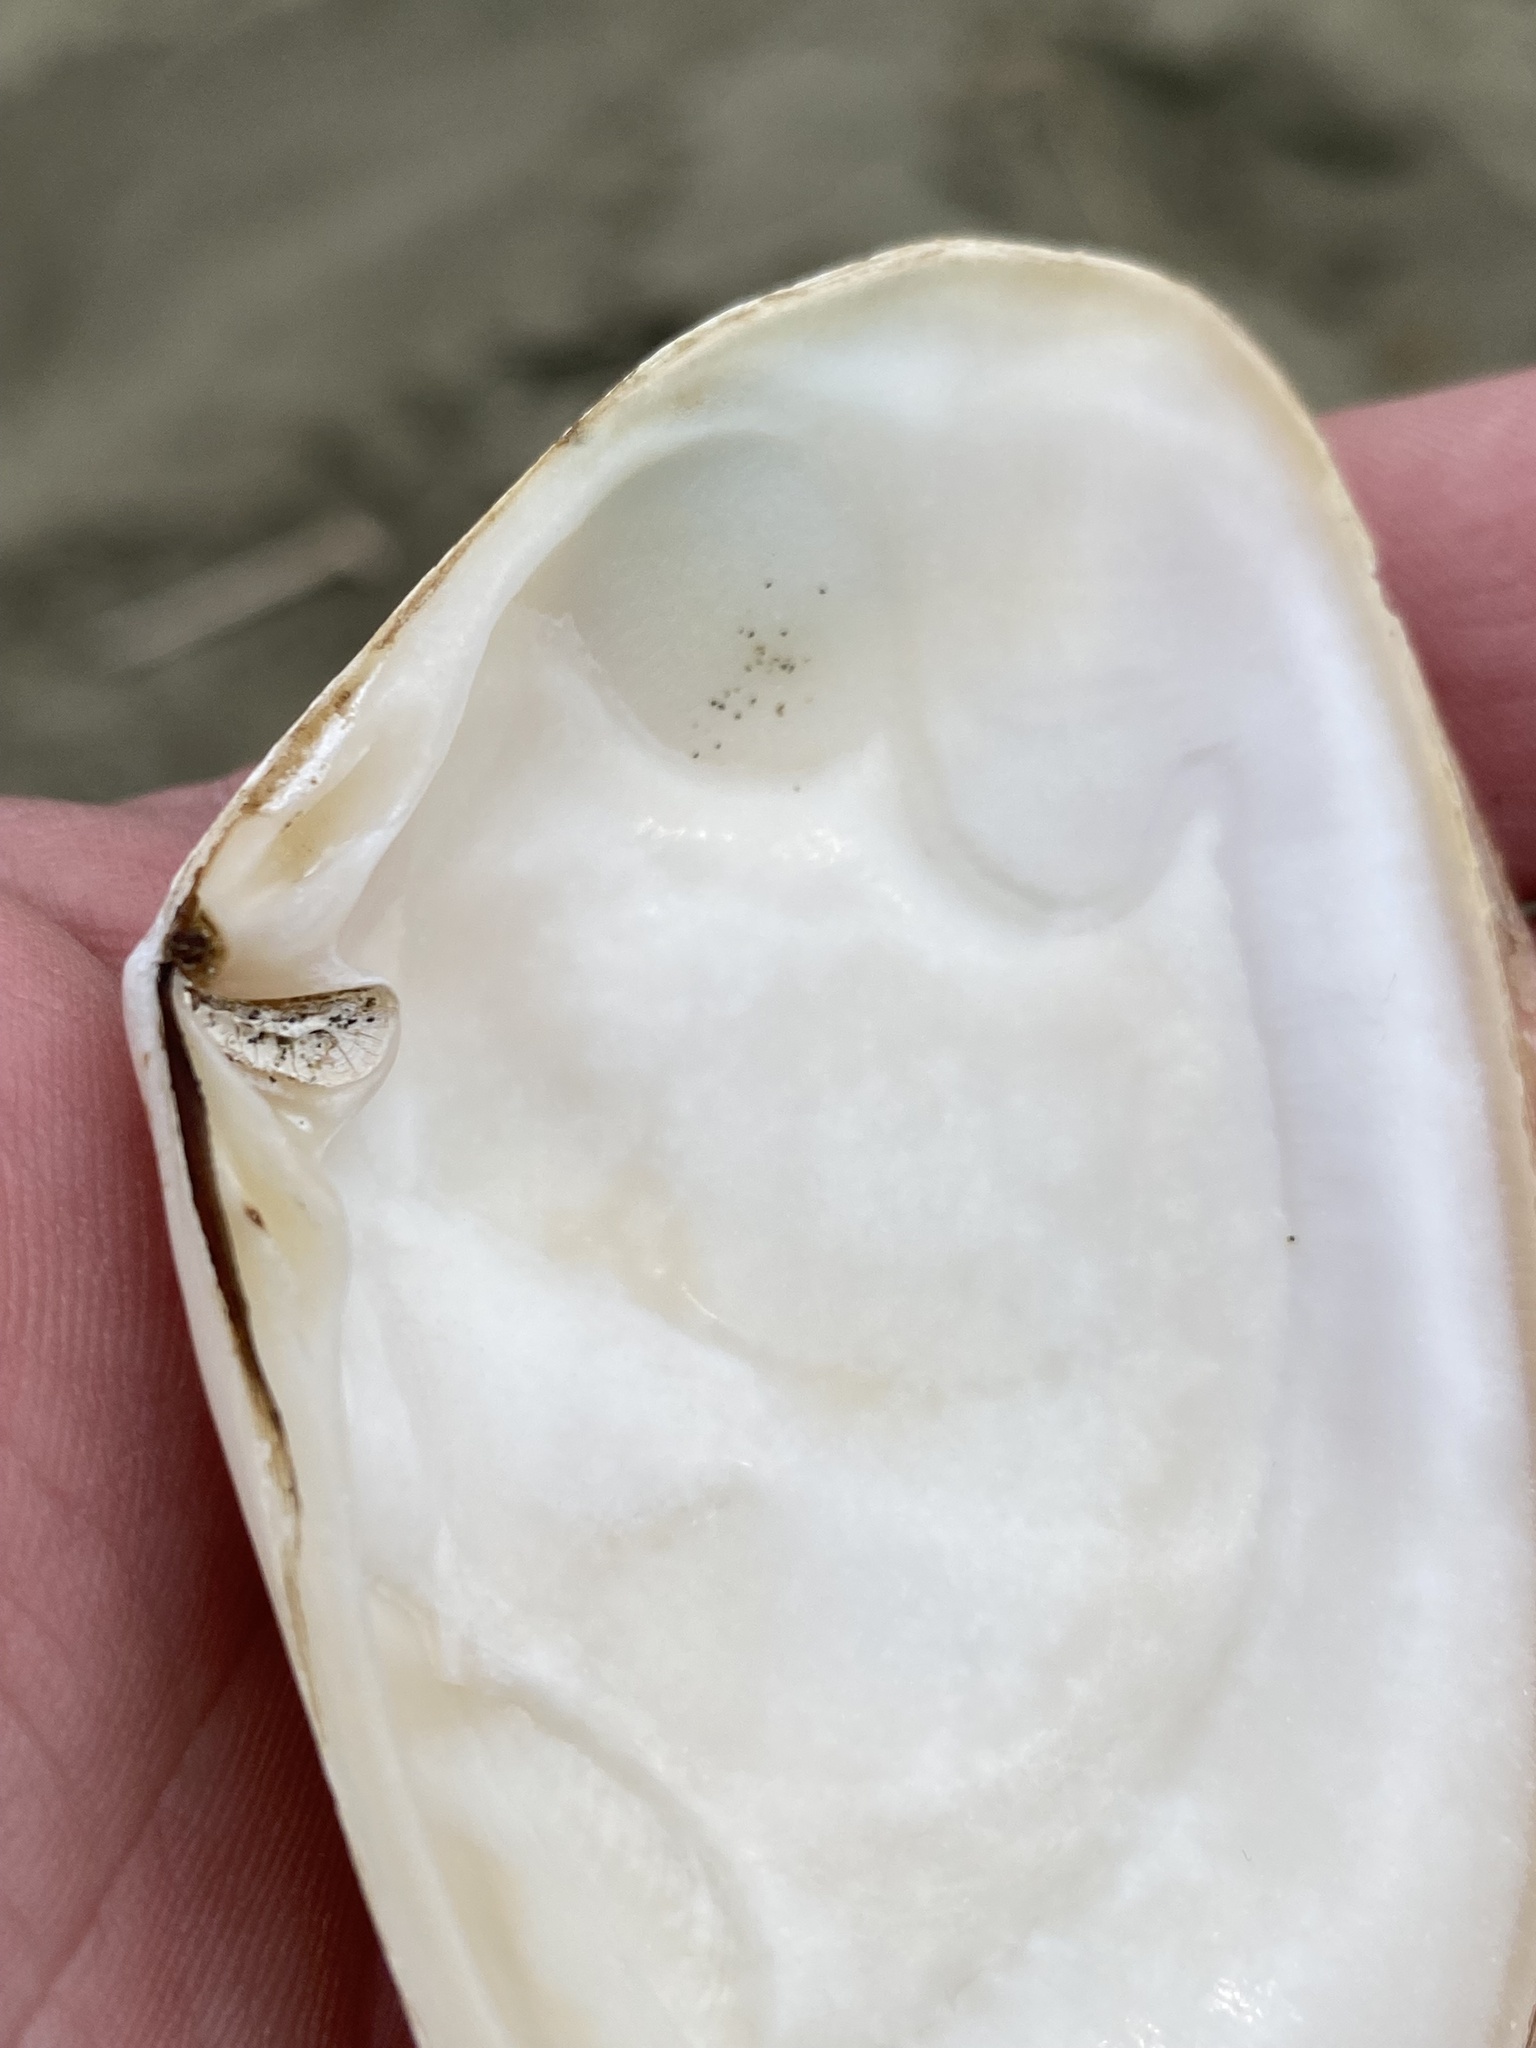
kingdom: Animalia
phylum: Mollusca
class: Bivalvia
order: Venerida
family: Mesodesmatidae
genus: Paphies
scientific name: Paphies donacina
